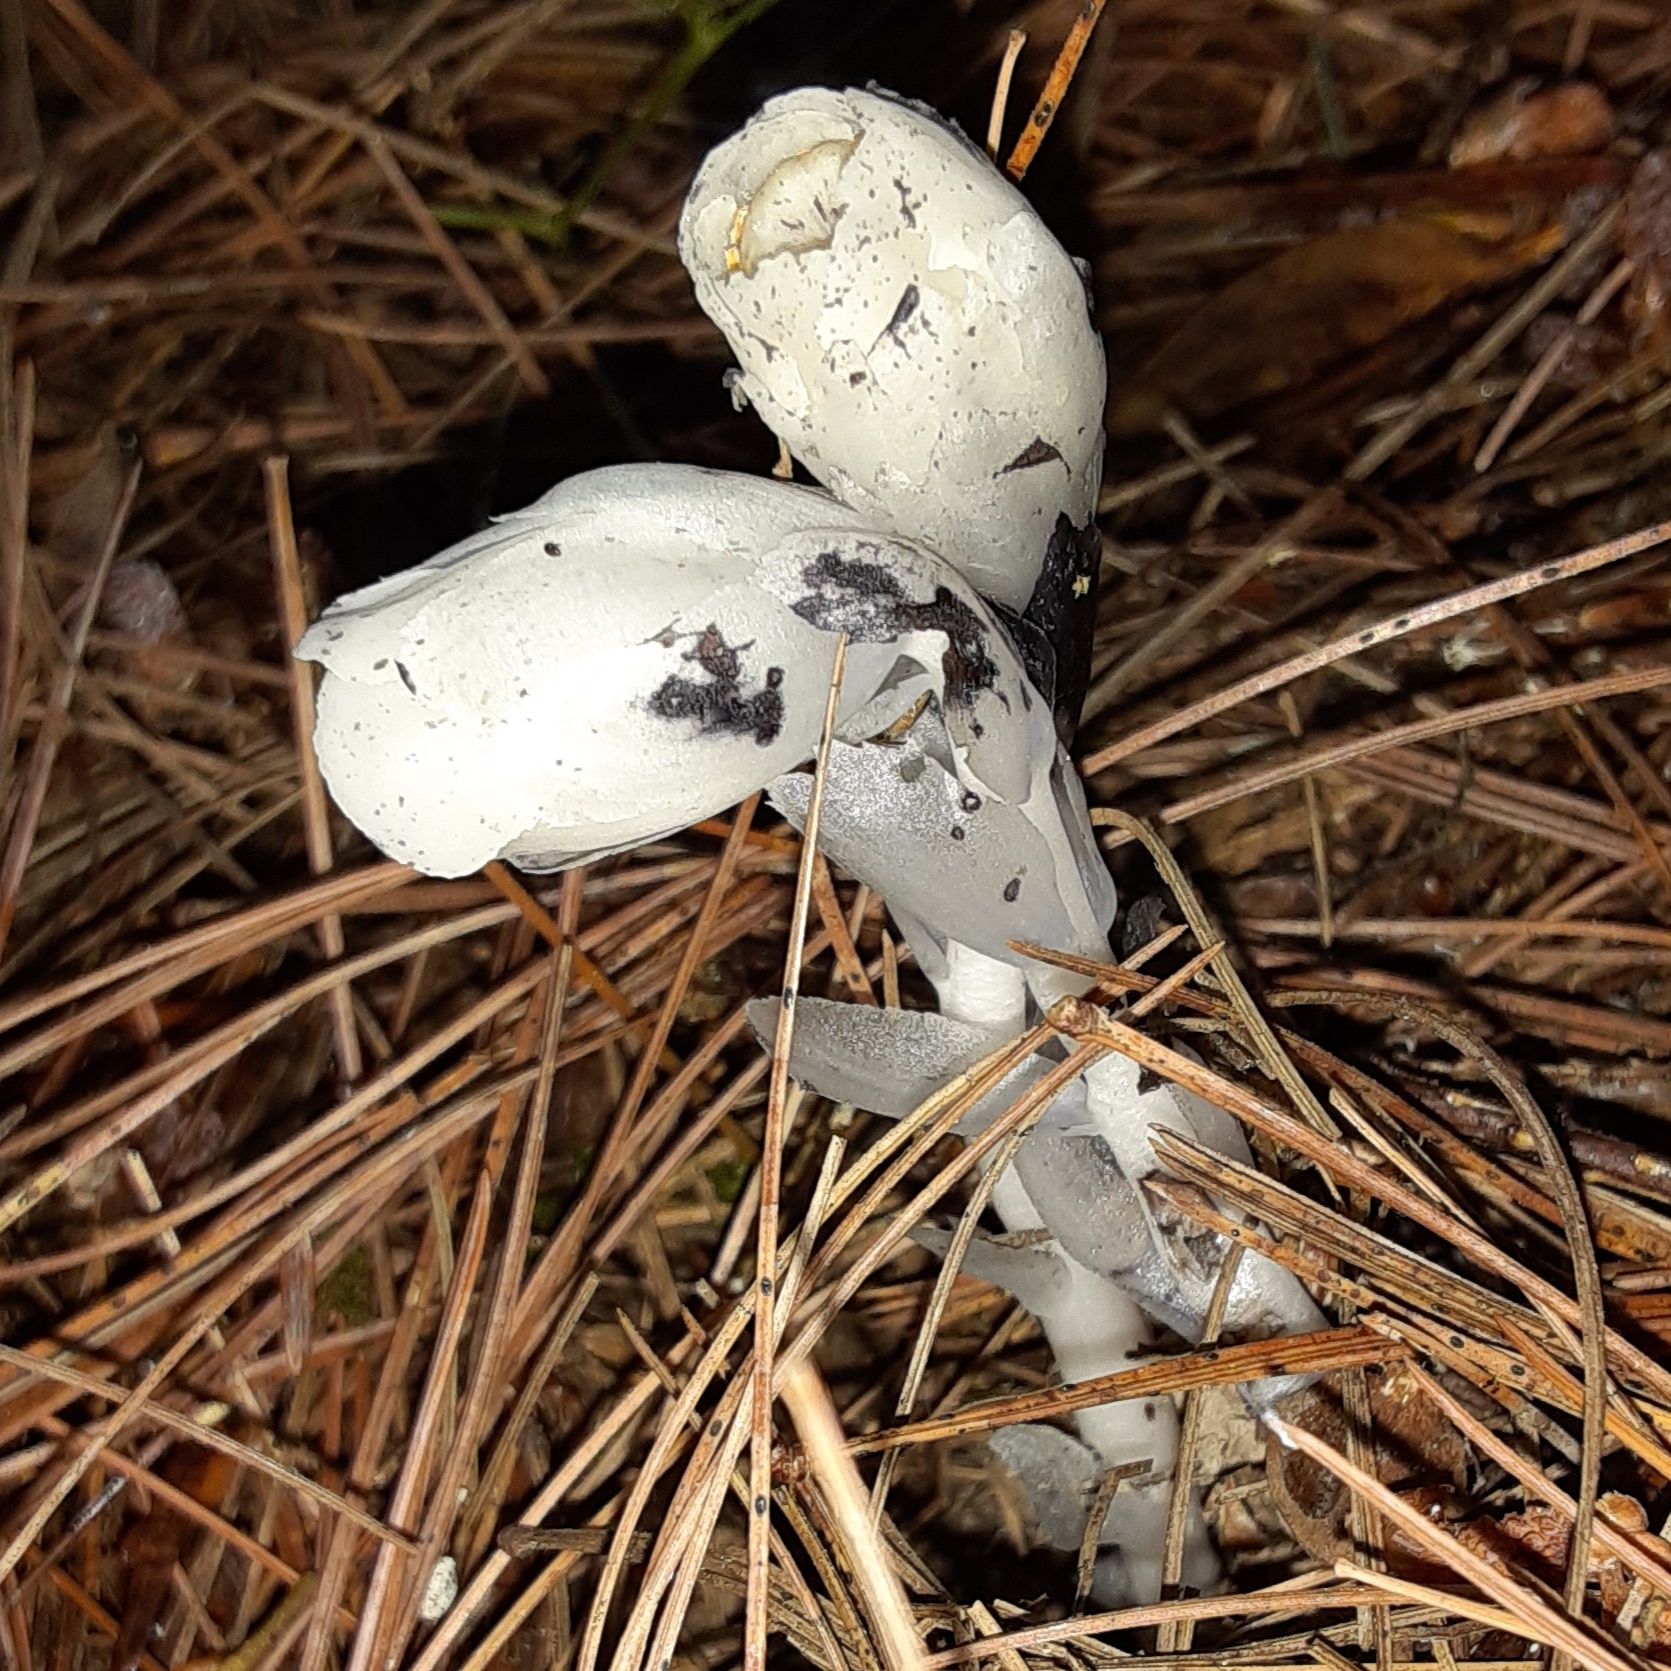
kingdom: Plantae
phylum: Tracheophyta
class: Magnoliopsida
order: Ericales
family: Ericaceae
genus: Monotropa
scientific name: Monotropa uniflora
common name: Convulsion root
